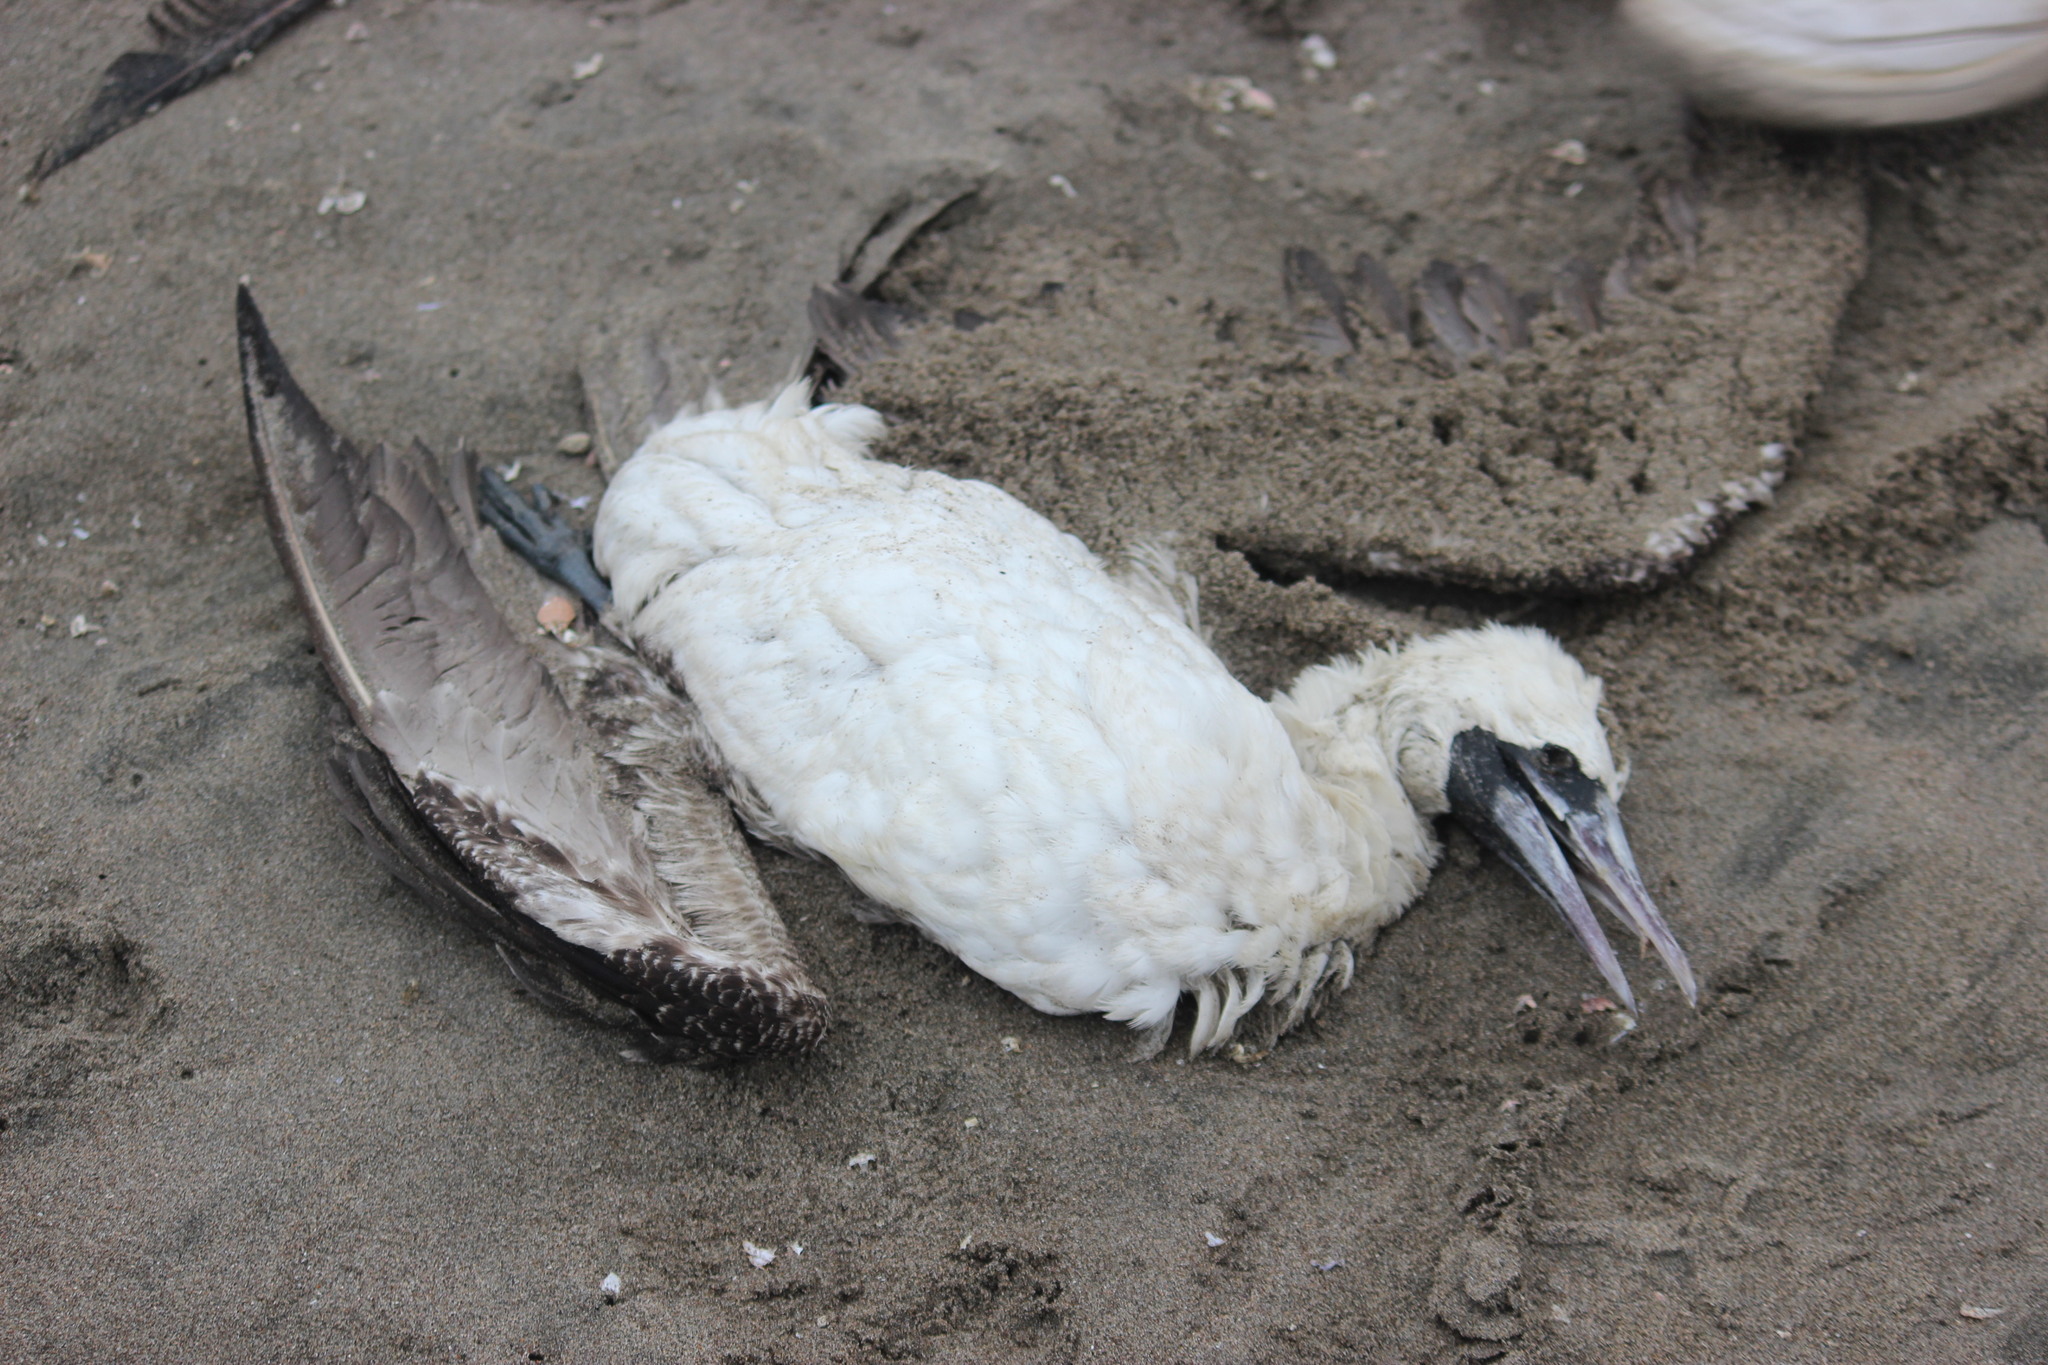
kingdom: Animalia
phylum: Chordata
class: Aves
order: Suliformes
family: Sulidae
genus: Sula
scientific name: Sula variegata
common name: Peruvian booby
